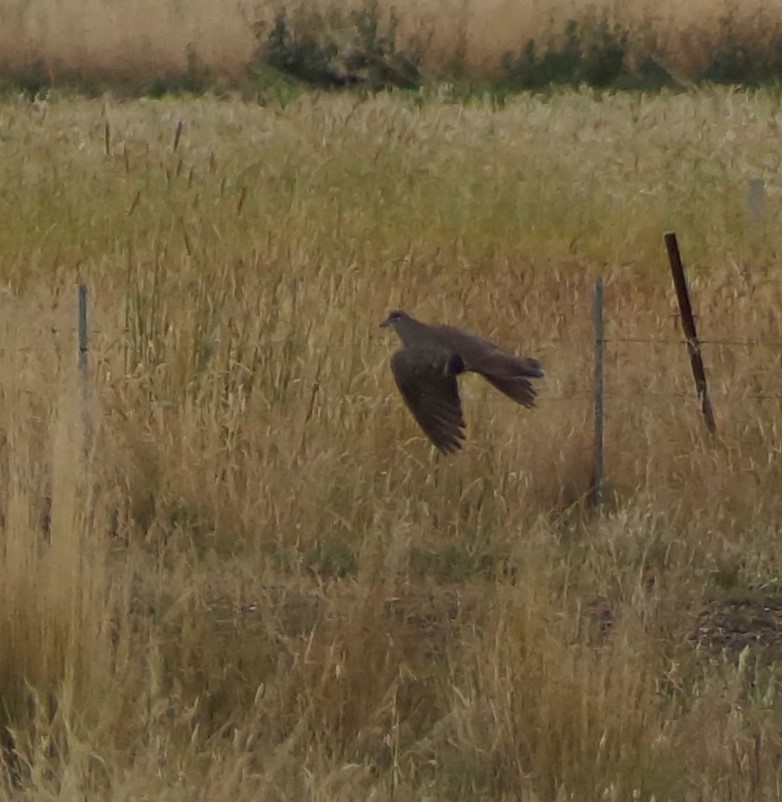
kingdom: Animalia
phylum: Chordata
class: Aves
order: Columbiformes
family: Columbidae
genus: Phaps
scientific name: Phaps chalcoptera
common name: Common bronzewing
